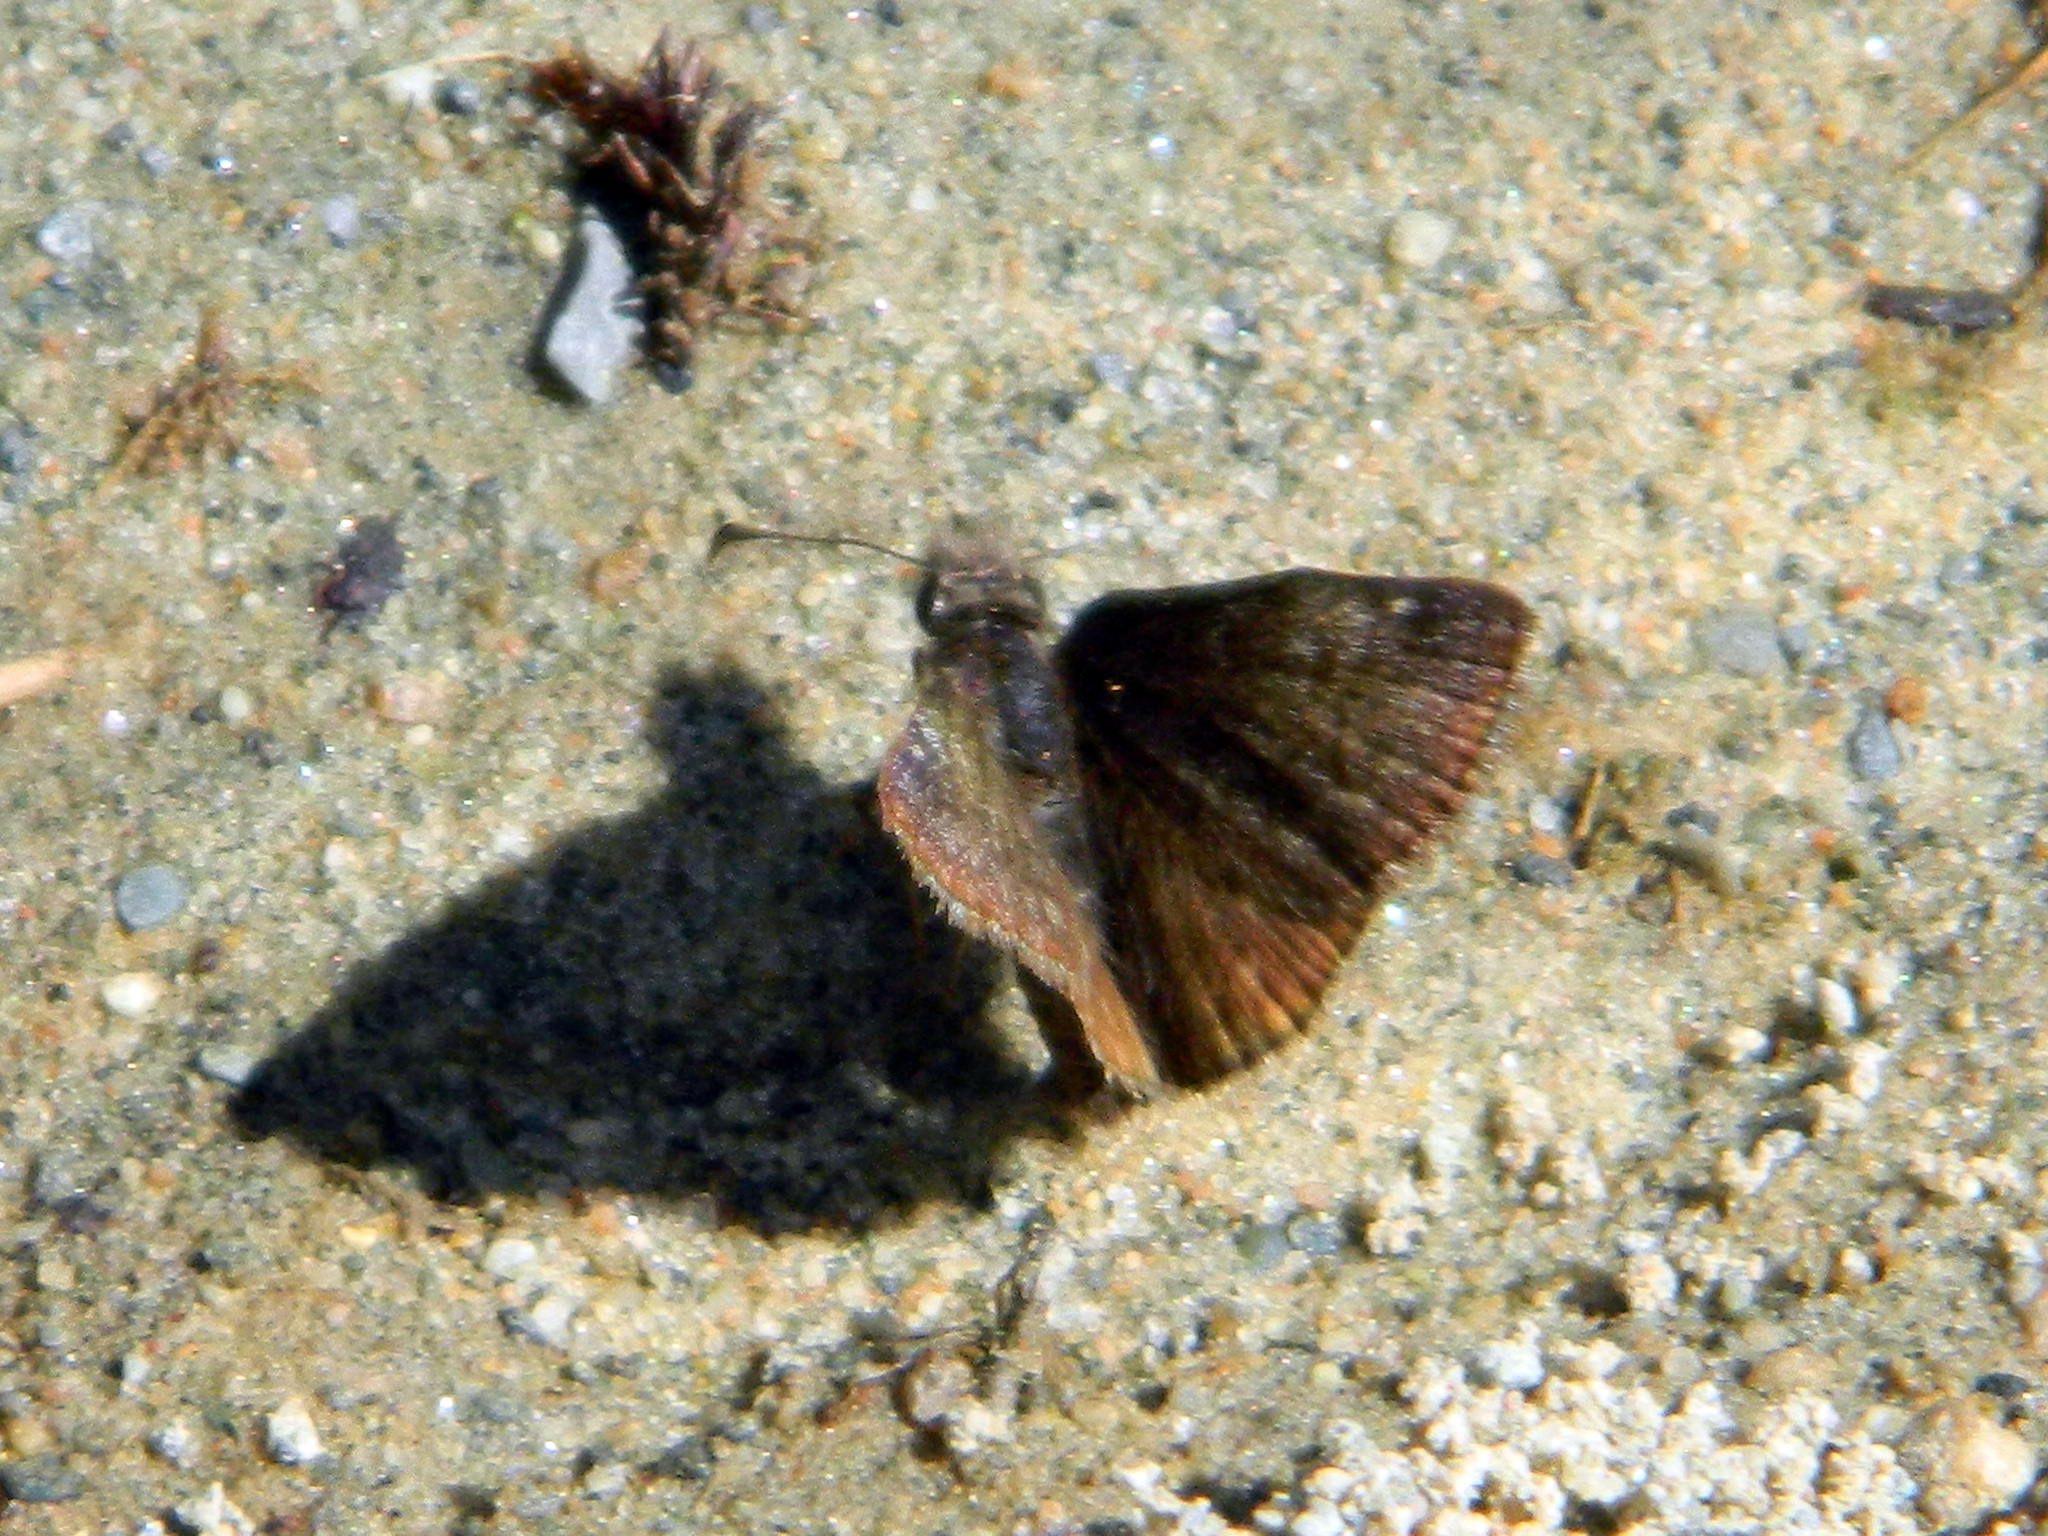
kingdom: Animalia
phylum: Arthropoda
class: Insecta
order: Lepidoptera
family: Hesperiidae
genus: Erynnis
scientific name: Erynnis icelus
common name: Dreamy duskywing
